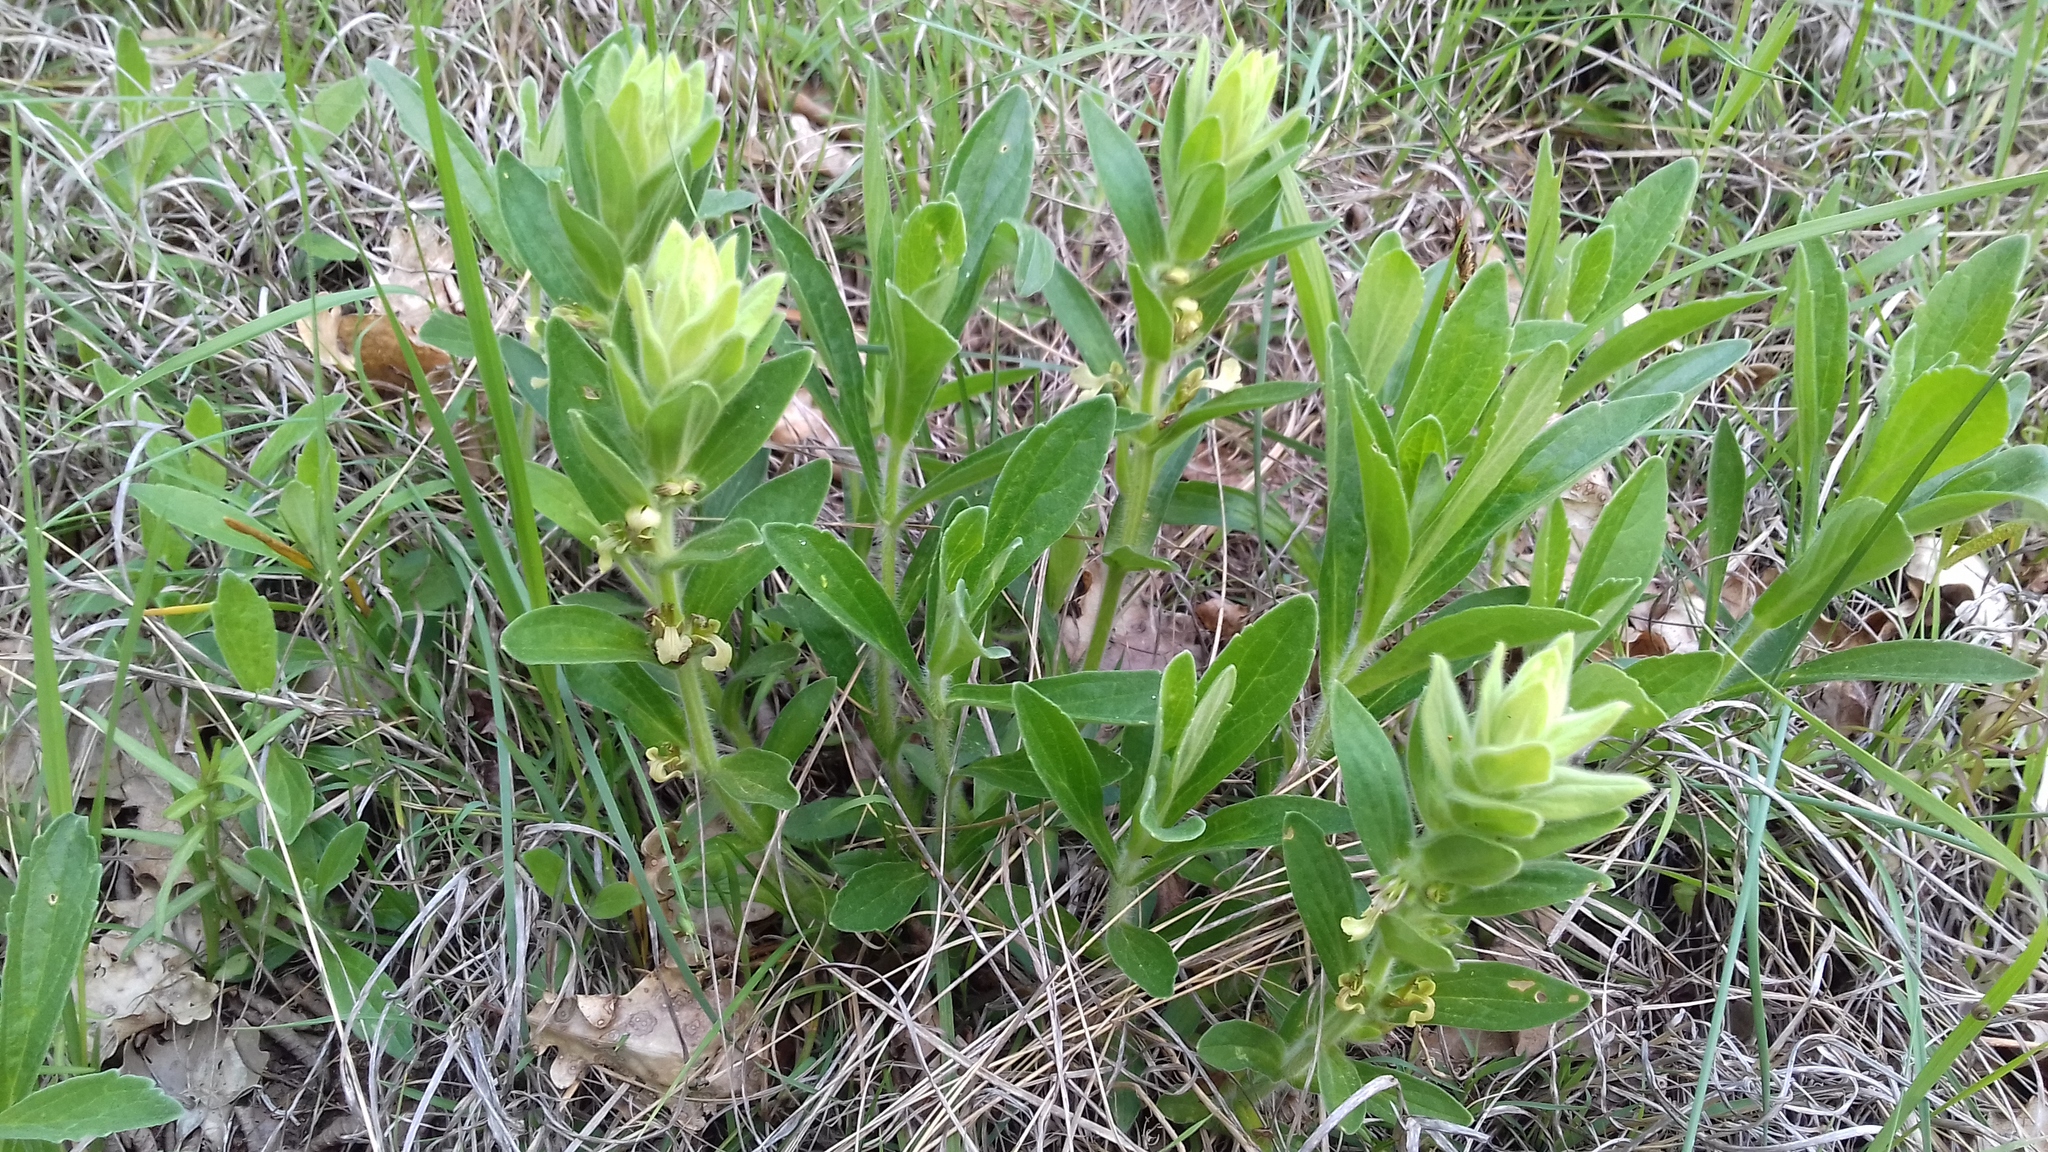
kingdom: Plantae
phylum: Tracheophyta
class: Magnoliopsida
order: Lamiales
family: Lamiaceae
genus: Ajuga
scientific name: Ajuga laxmannii
